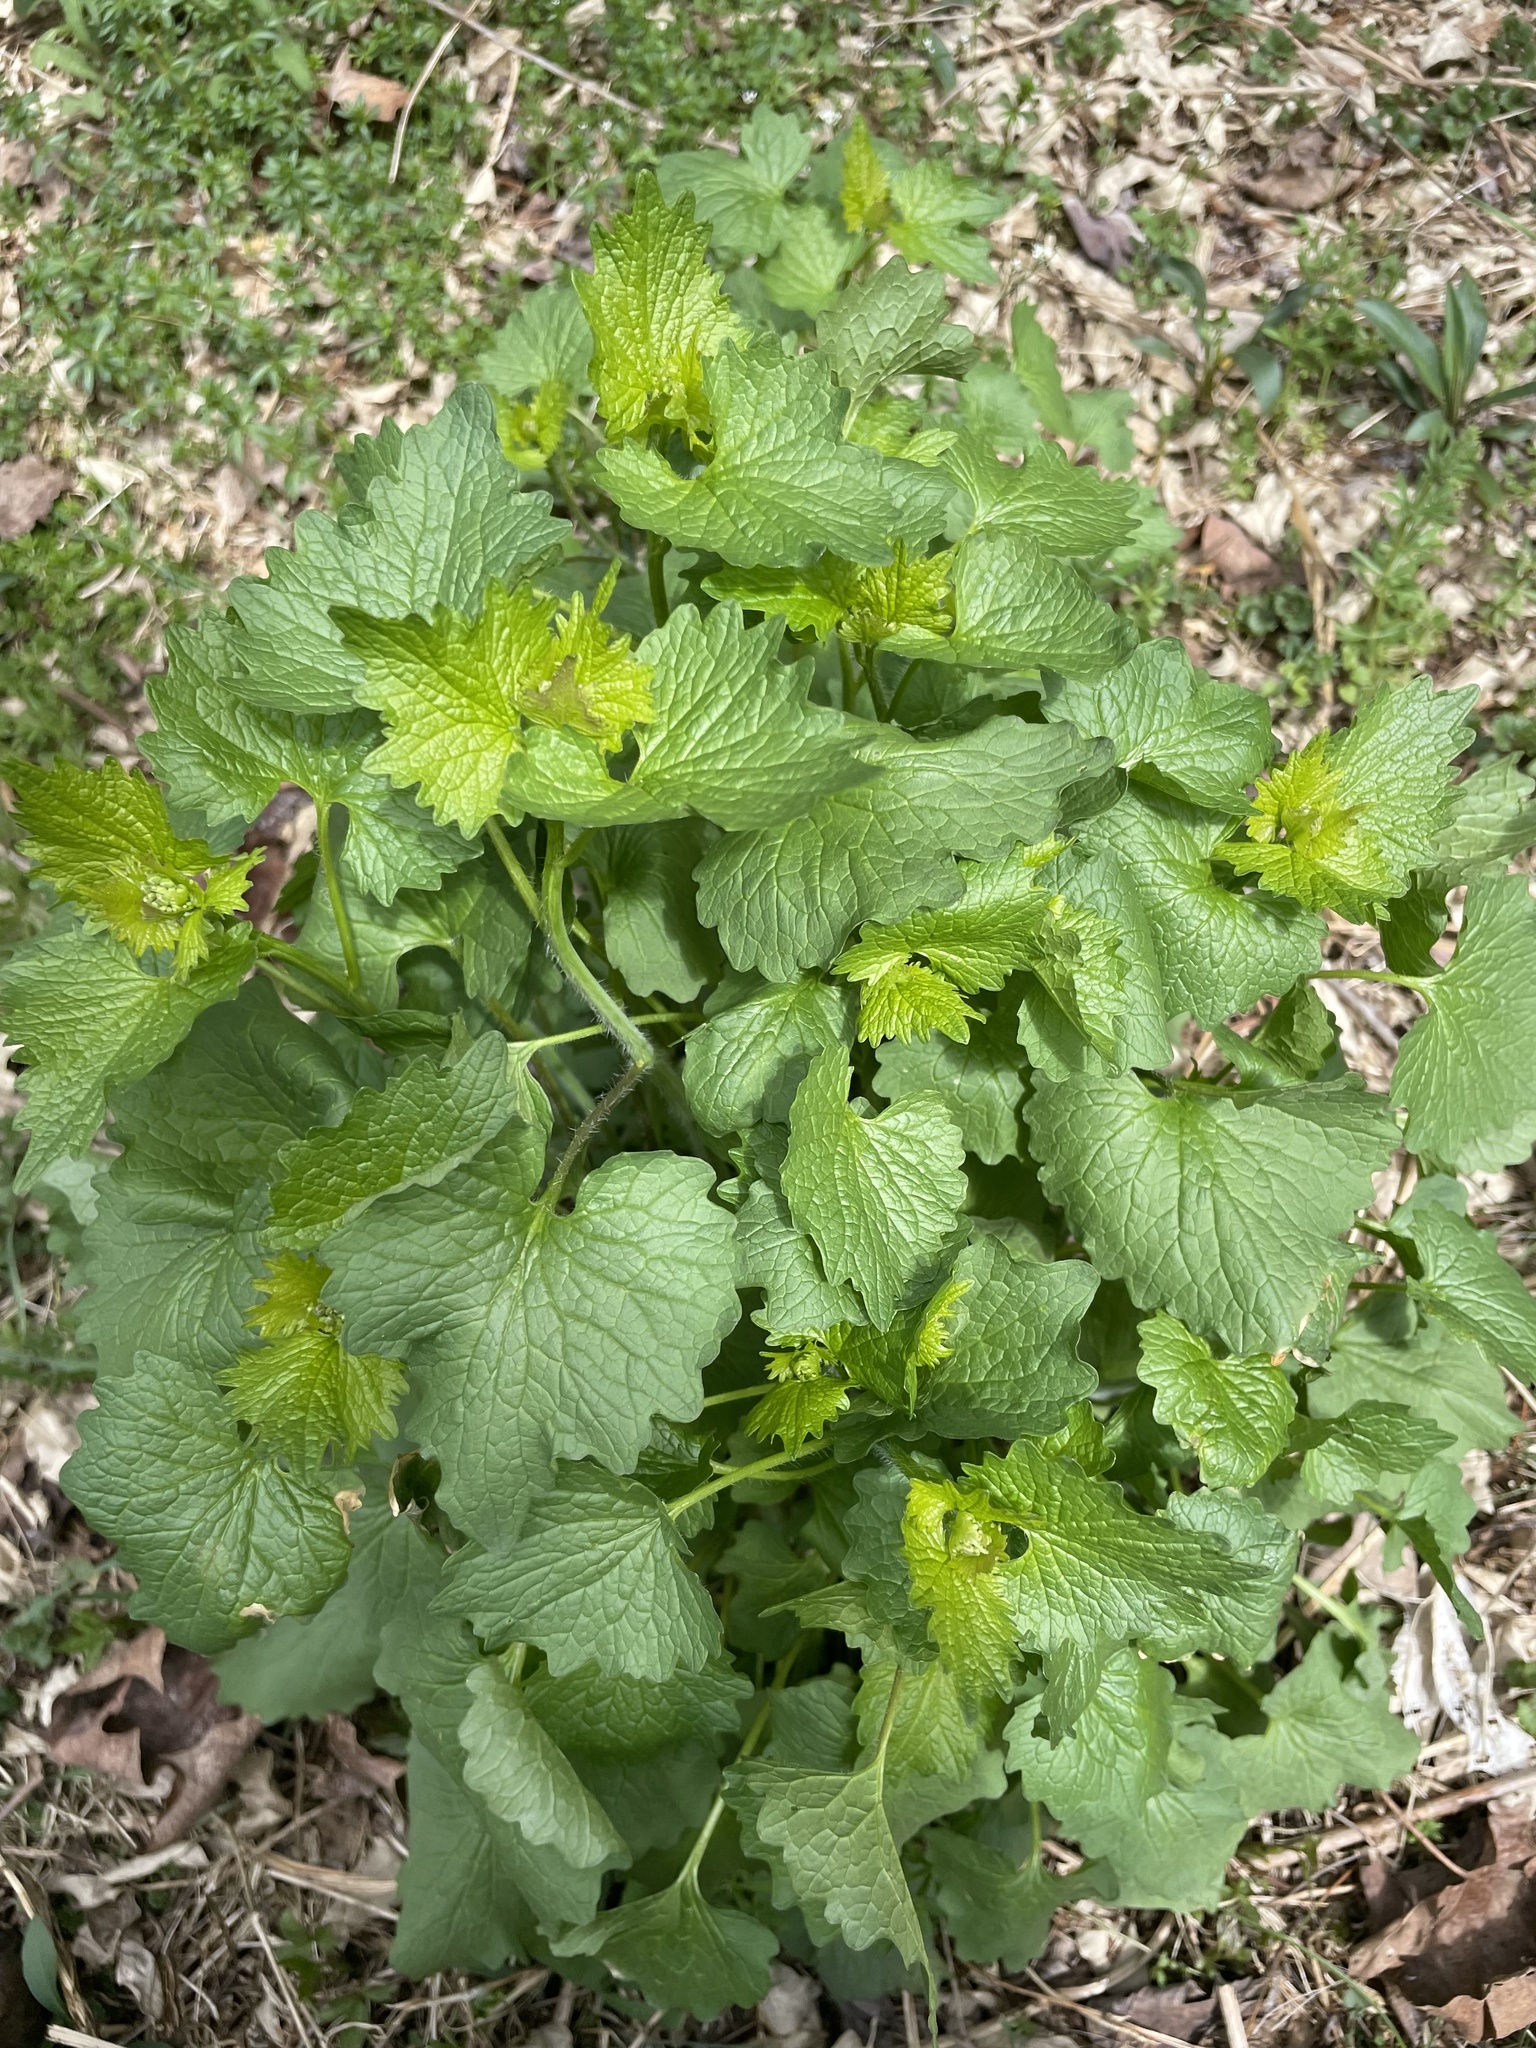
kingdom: Plantae
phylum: Tracheophyta
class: Magnoliopsida
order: Brassicales
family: Brassicaceae
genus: Alliaria
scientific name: Alliaria petiolata
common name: Garlic mustard
